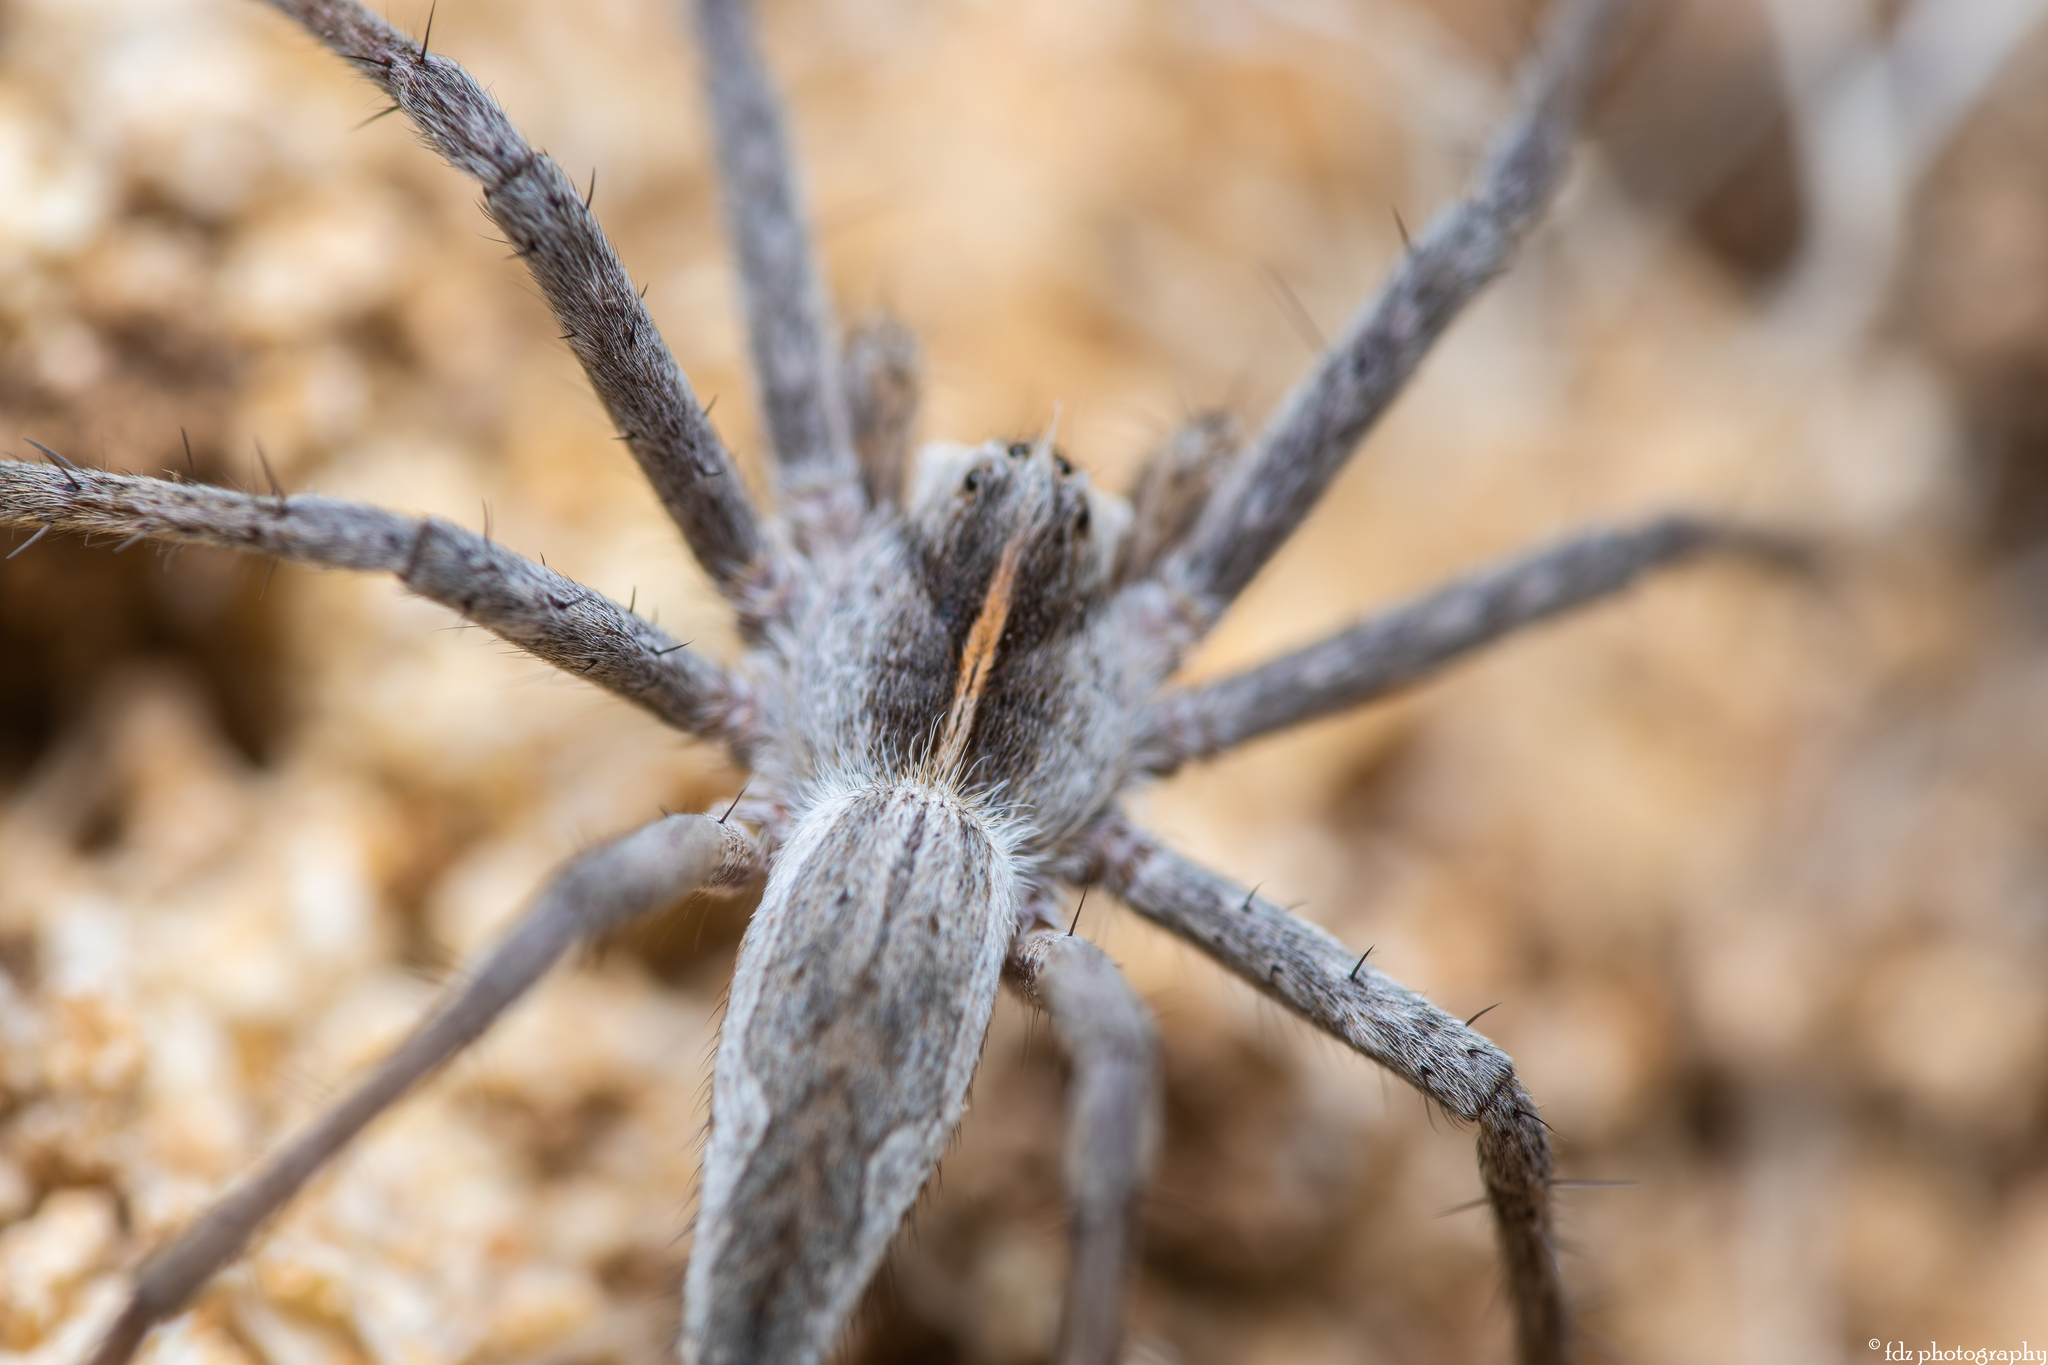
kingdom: Animalia
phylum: Arthropoda
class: Arachnida
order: Araneae
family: Pisauridae
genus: Pisaura
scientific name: Pisaura mirabilis
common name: Tent spider
